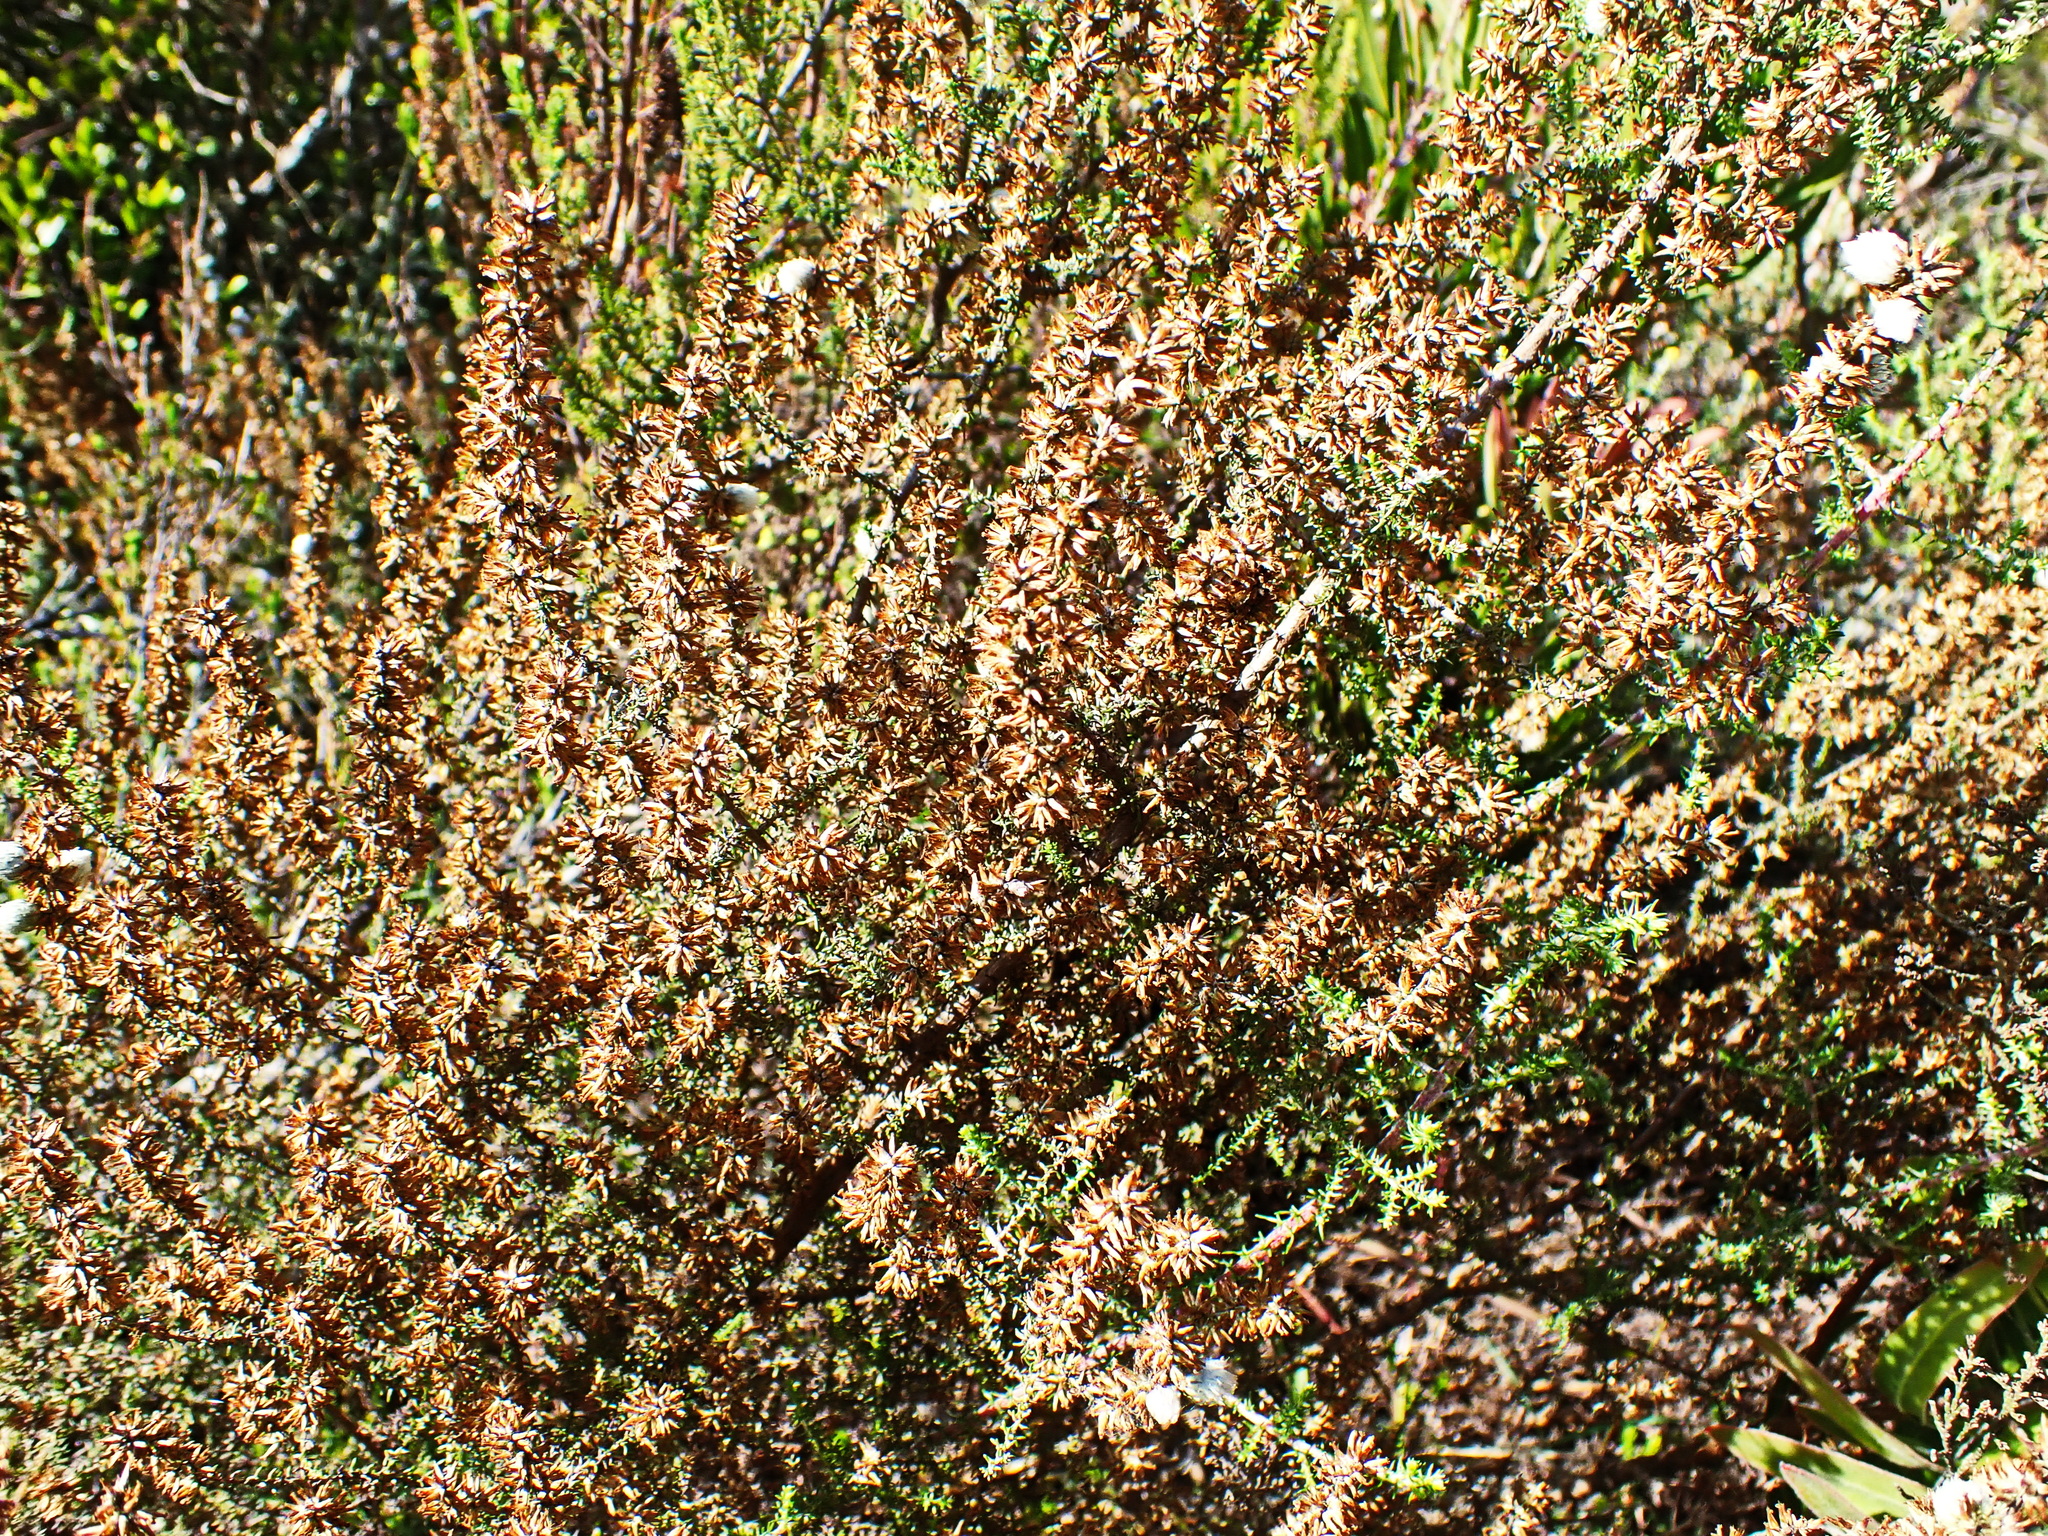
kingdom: Plantae
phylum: Tracheophyta
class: Magnoliopsida
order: Asterales
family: Asteraceae
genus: Seriphium
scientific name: Seriphium plumosum
